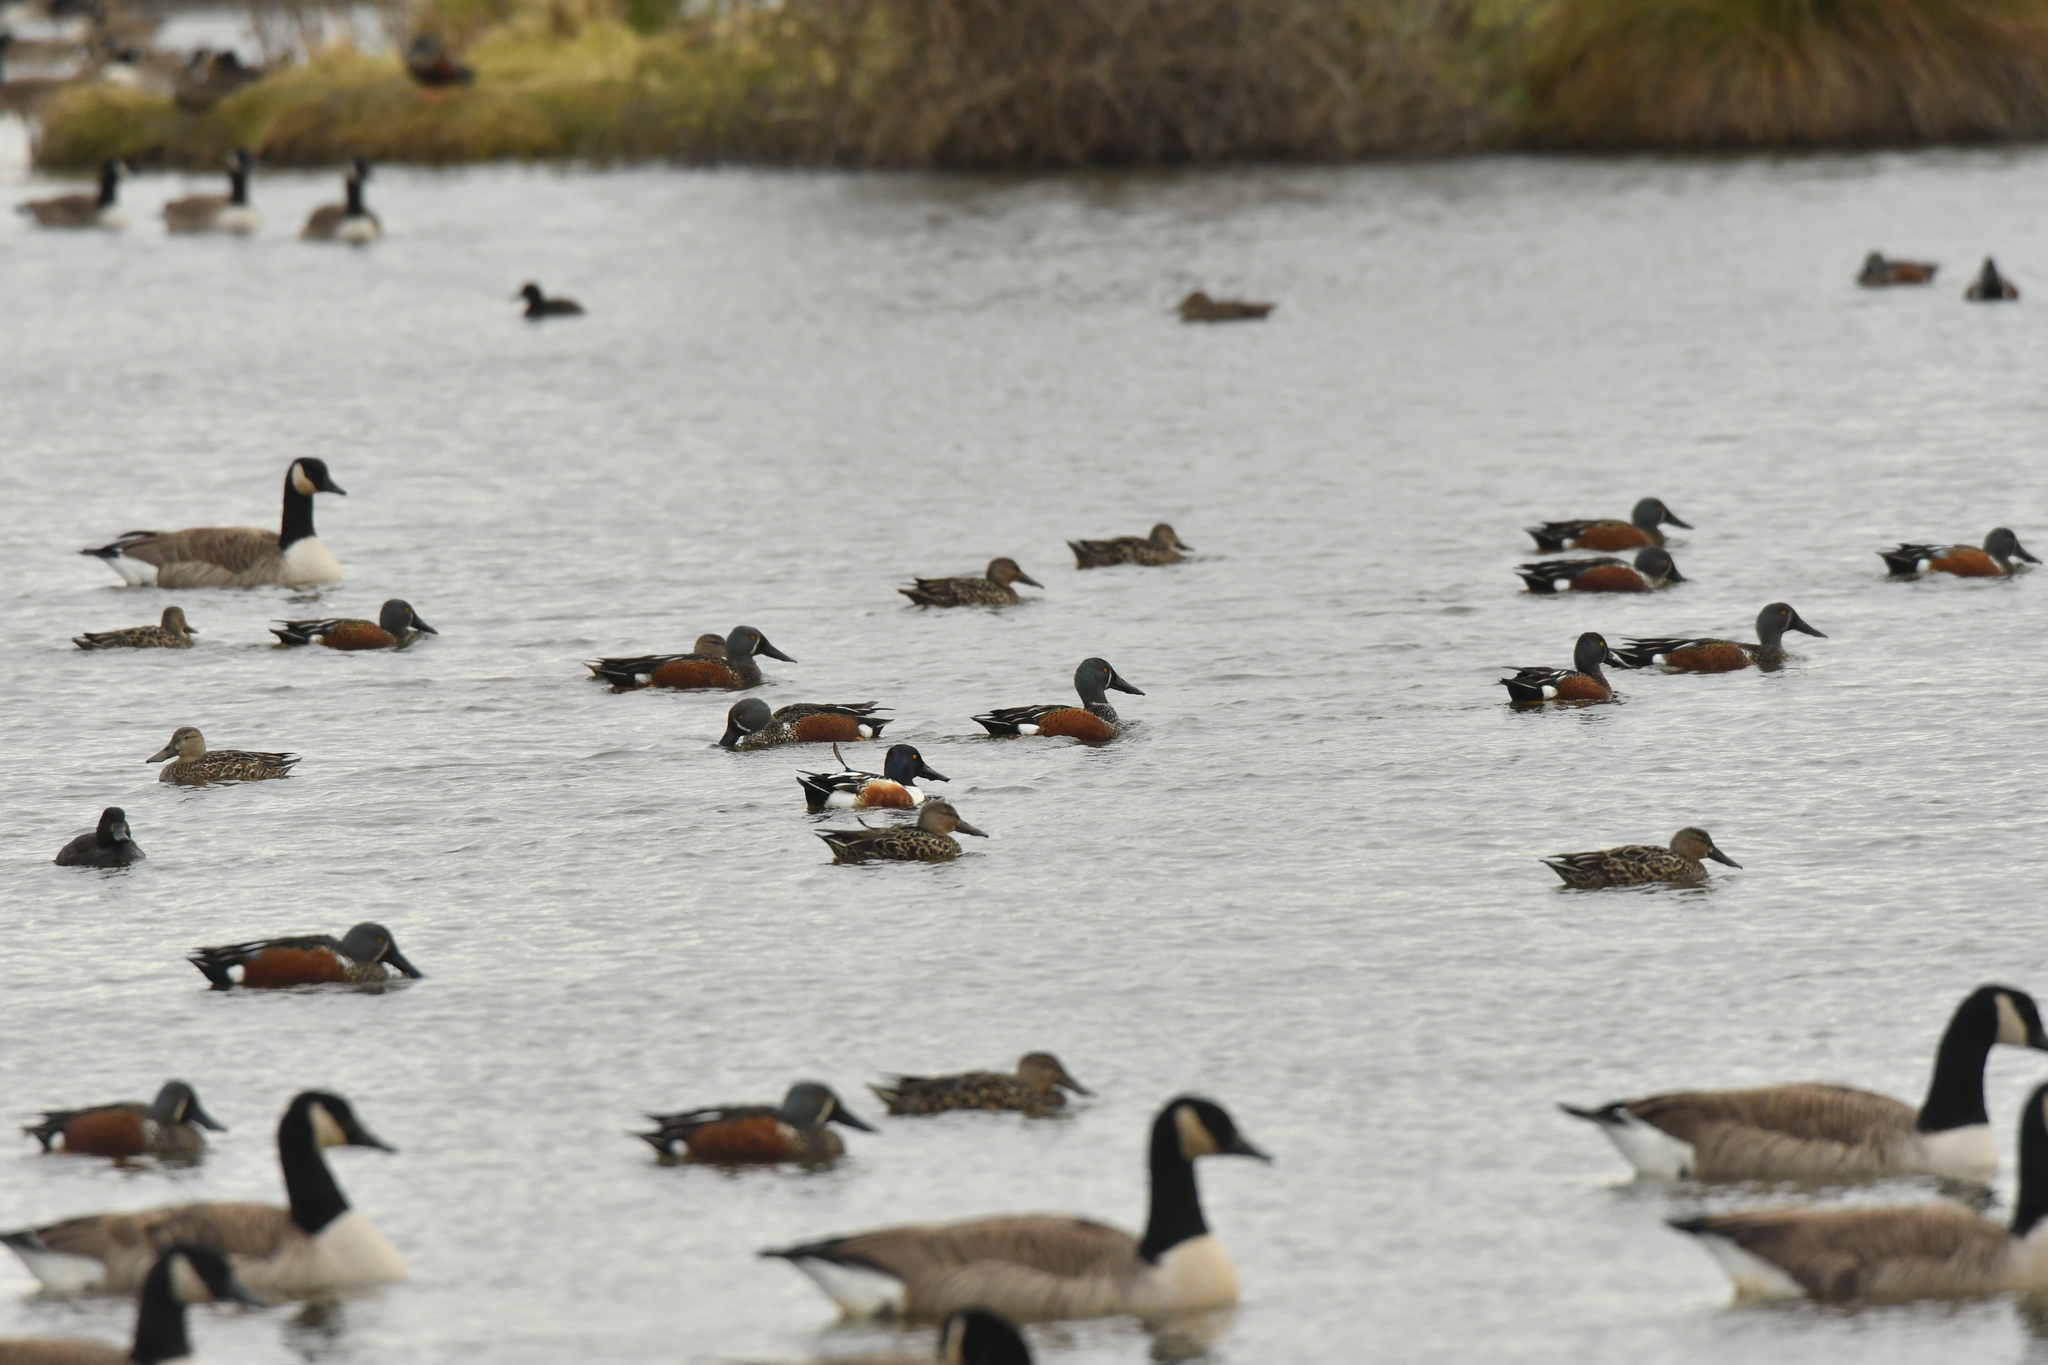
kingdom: Animalia
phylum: Chordata
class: Aves
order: Anseriformes
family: Anatidae
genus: Spatula
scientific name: Spatula clypeata
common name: Northern shoveler
